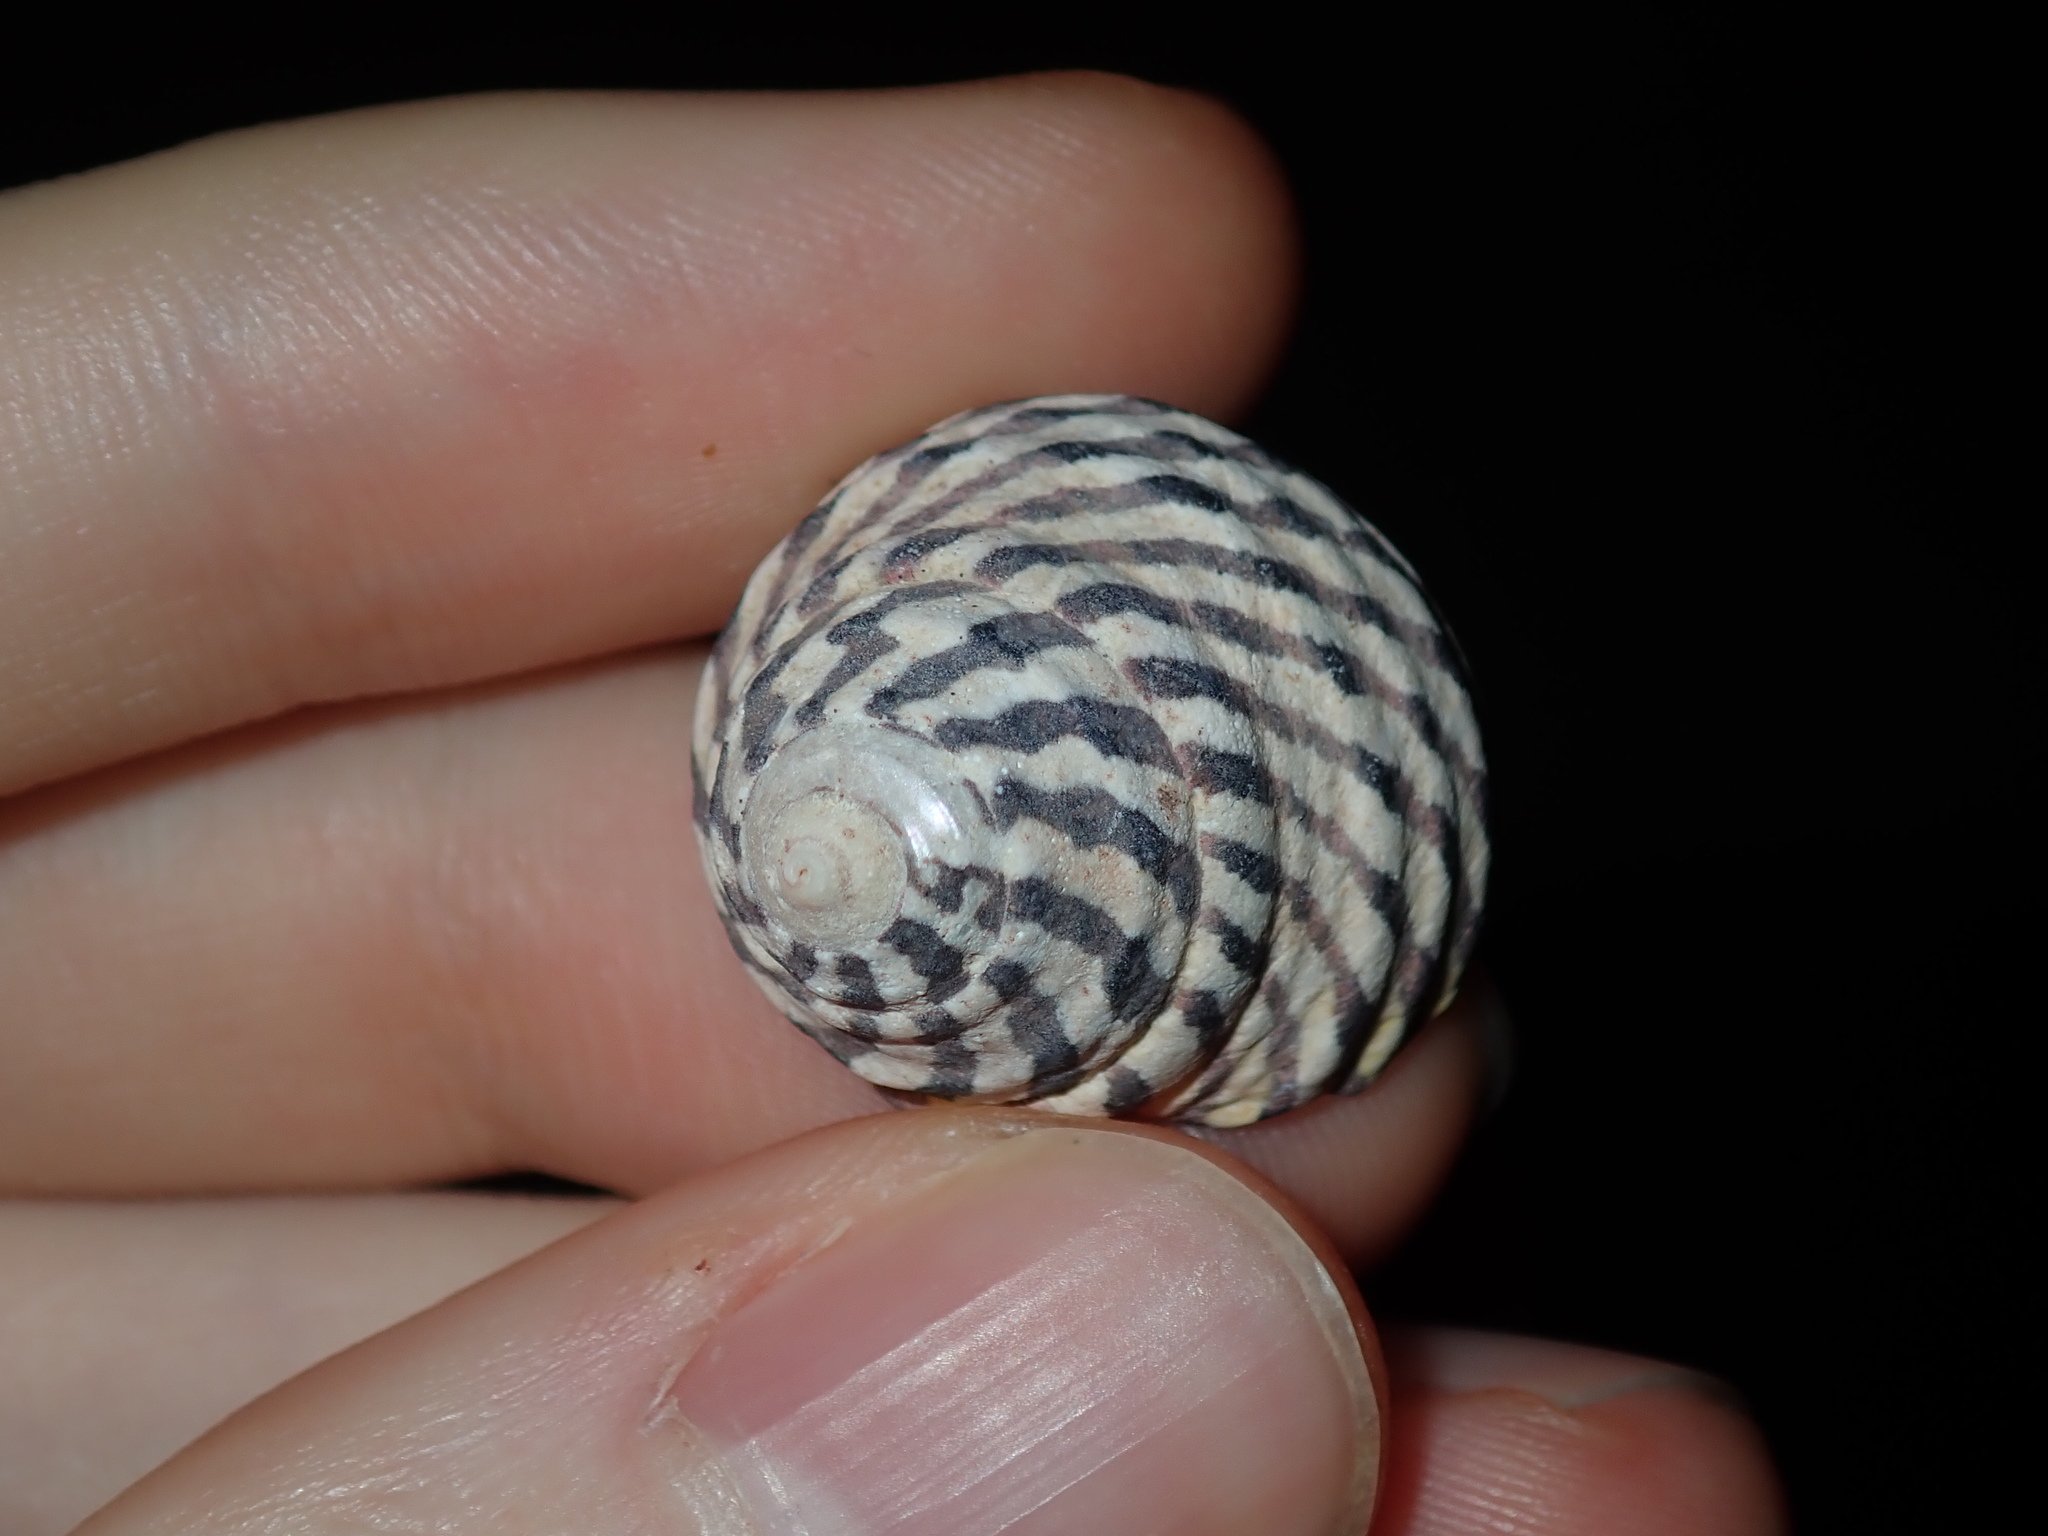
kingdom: Animalia
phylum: Mollusca
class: Gastropoda
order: Trochida
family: Trochidae
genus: Austrocochlea
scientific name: Austrocochlea porcata
